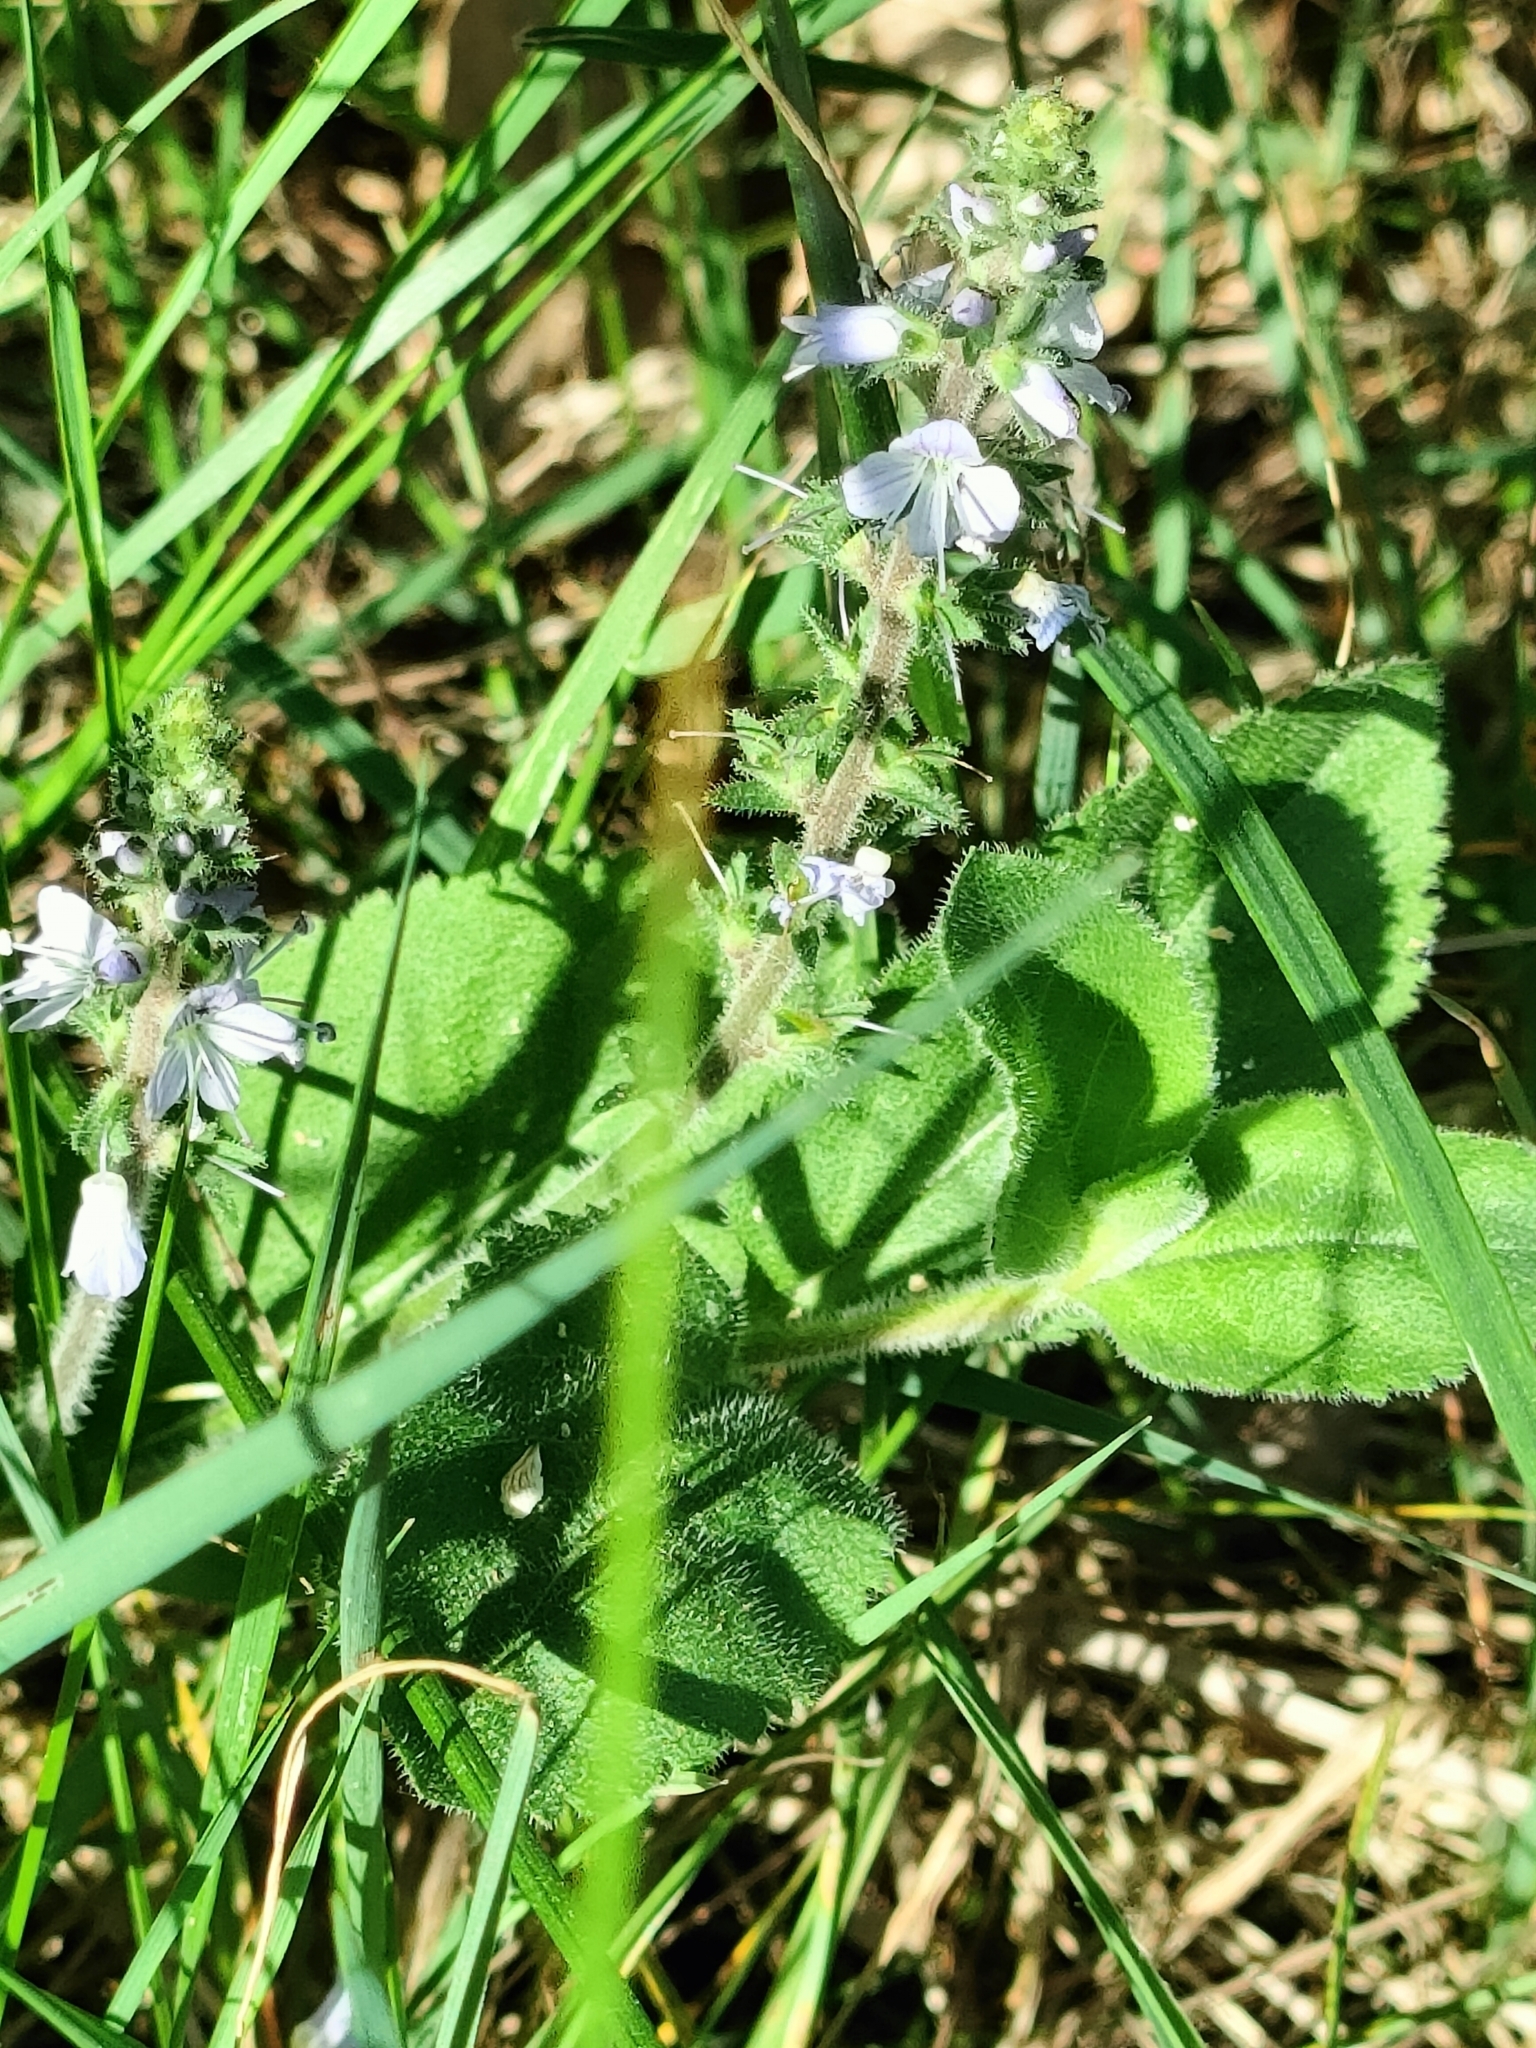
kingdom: Plantae
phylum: Tracheophyta
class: Magnoliopsida
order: Lamiales
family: Plantaginaceae
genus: Veronica
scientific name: Veronica officinalis
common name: Common speedwell
